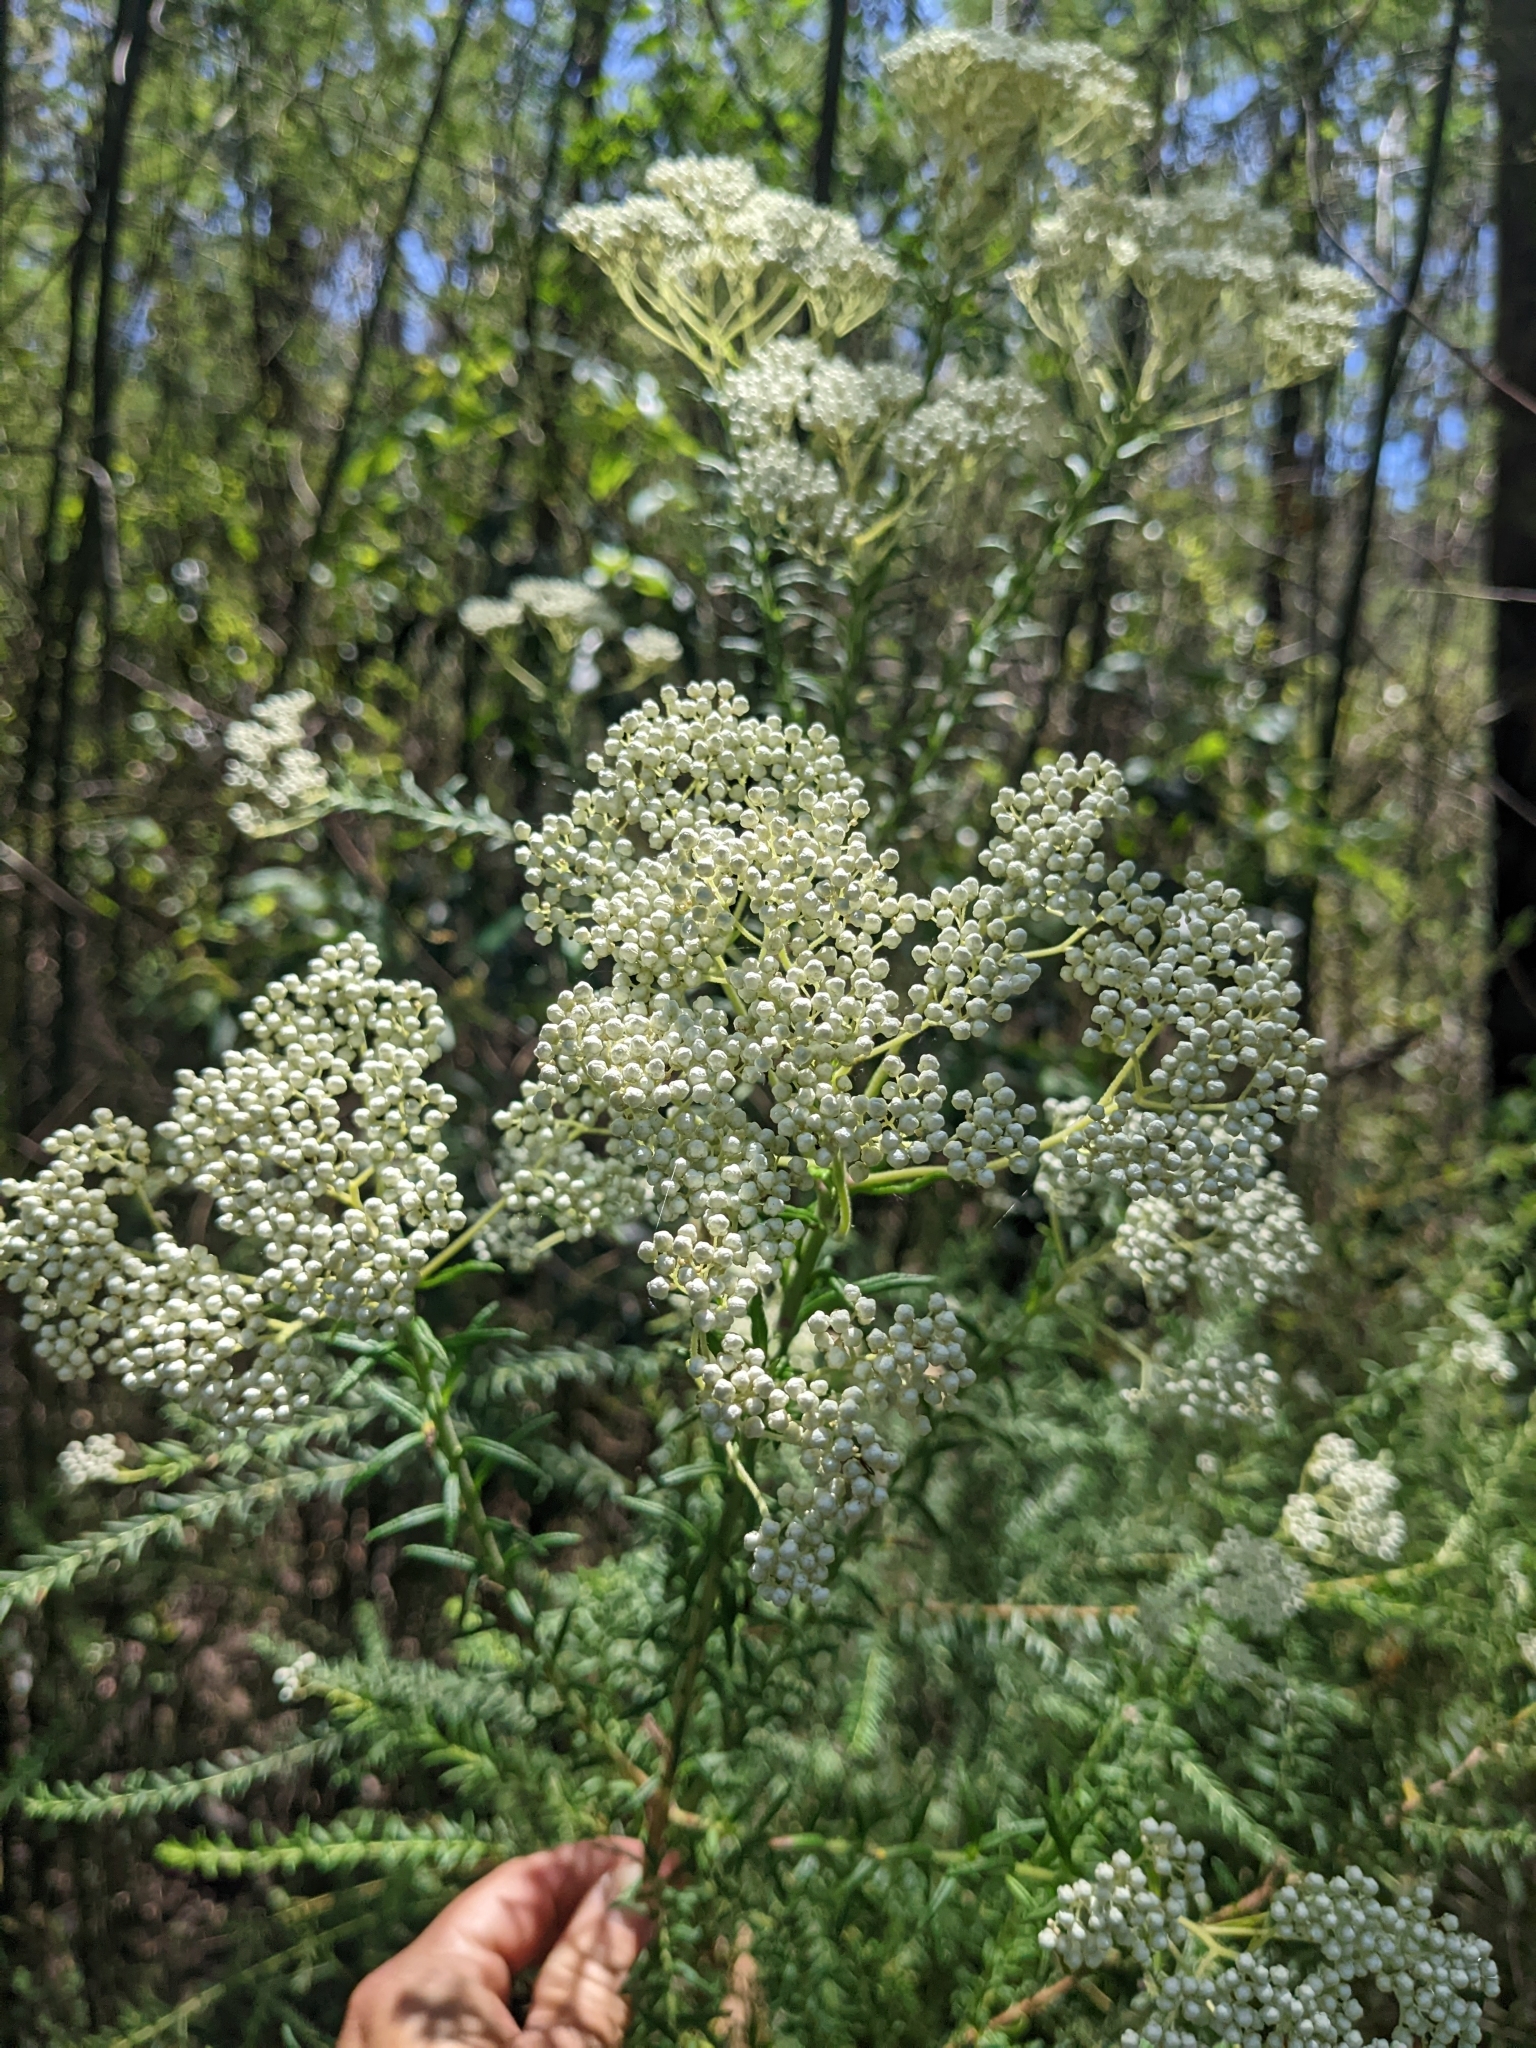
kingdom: Plantae
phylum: Tracheophyta
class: Magnoliopsida
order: Asterales
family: Asteraceae
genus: Ozothamnus
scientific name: Ozothamnus diosmifolius
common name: White-dogwood
